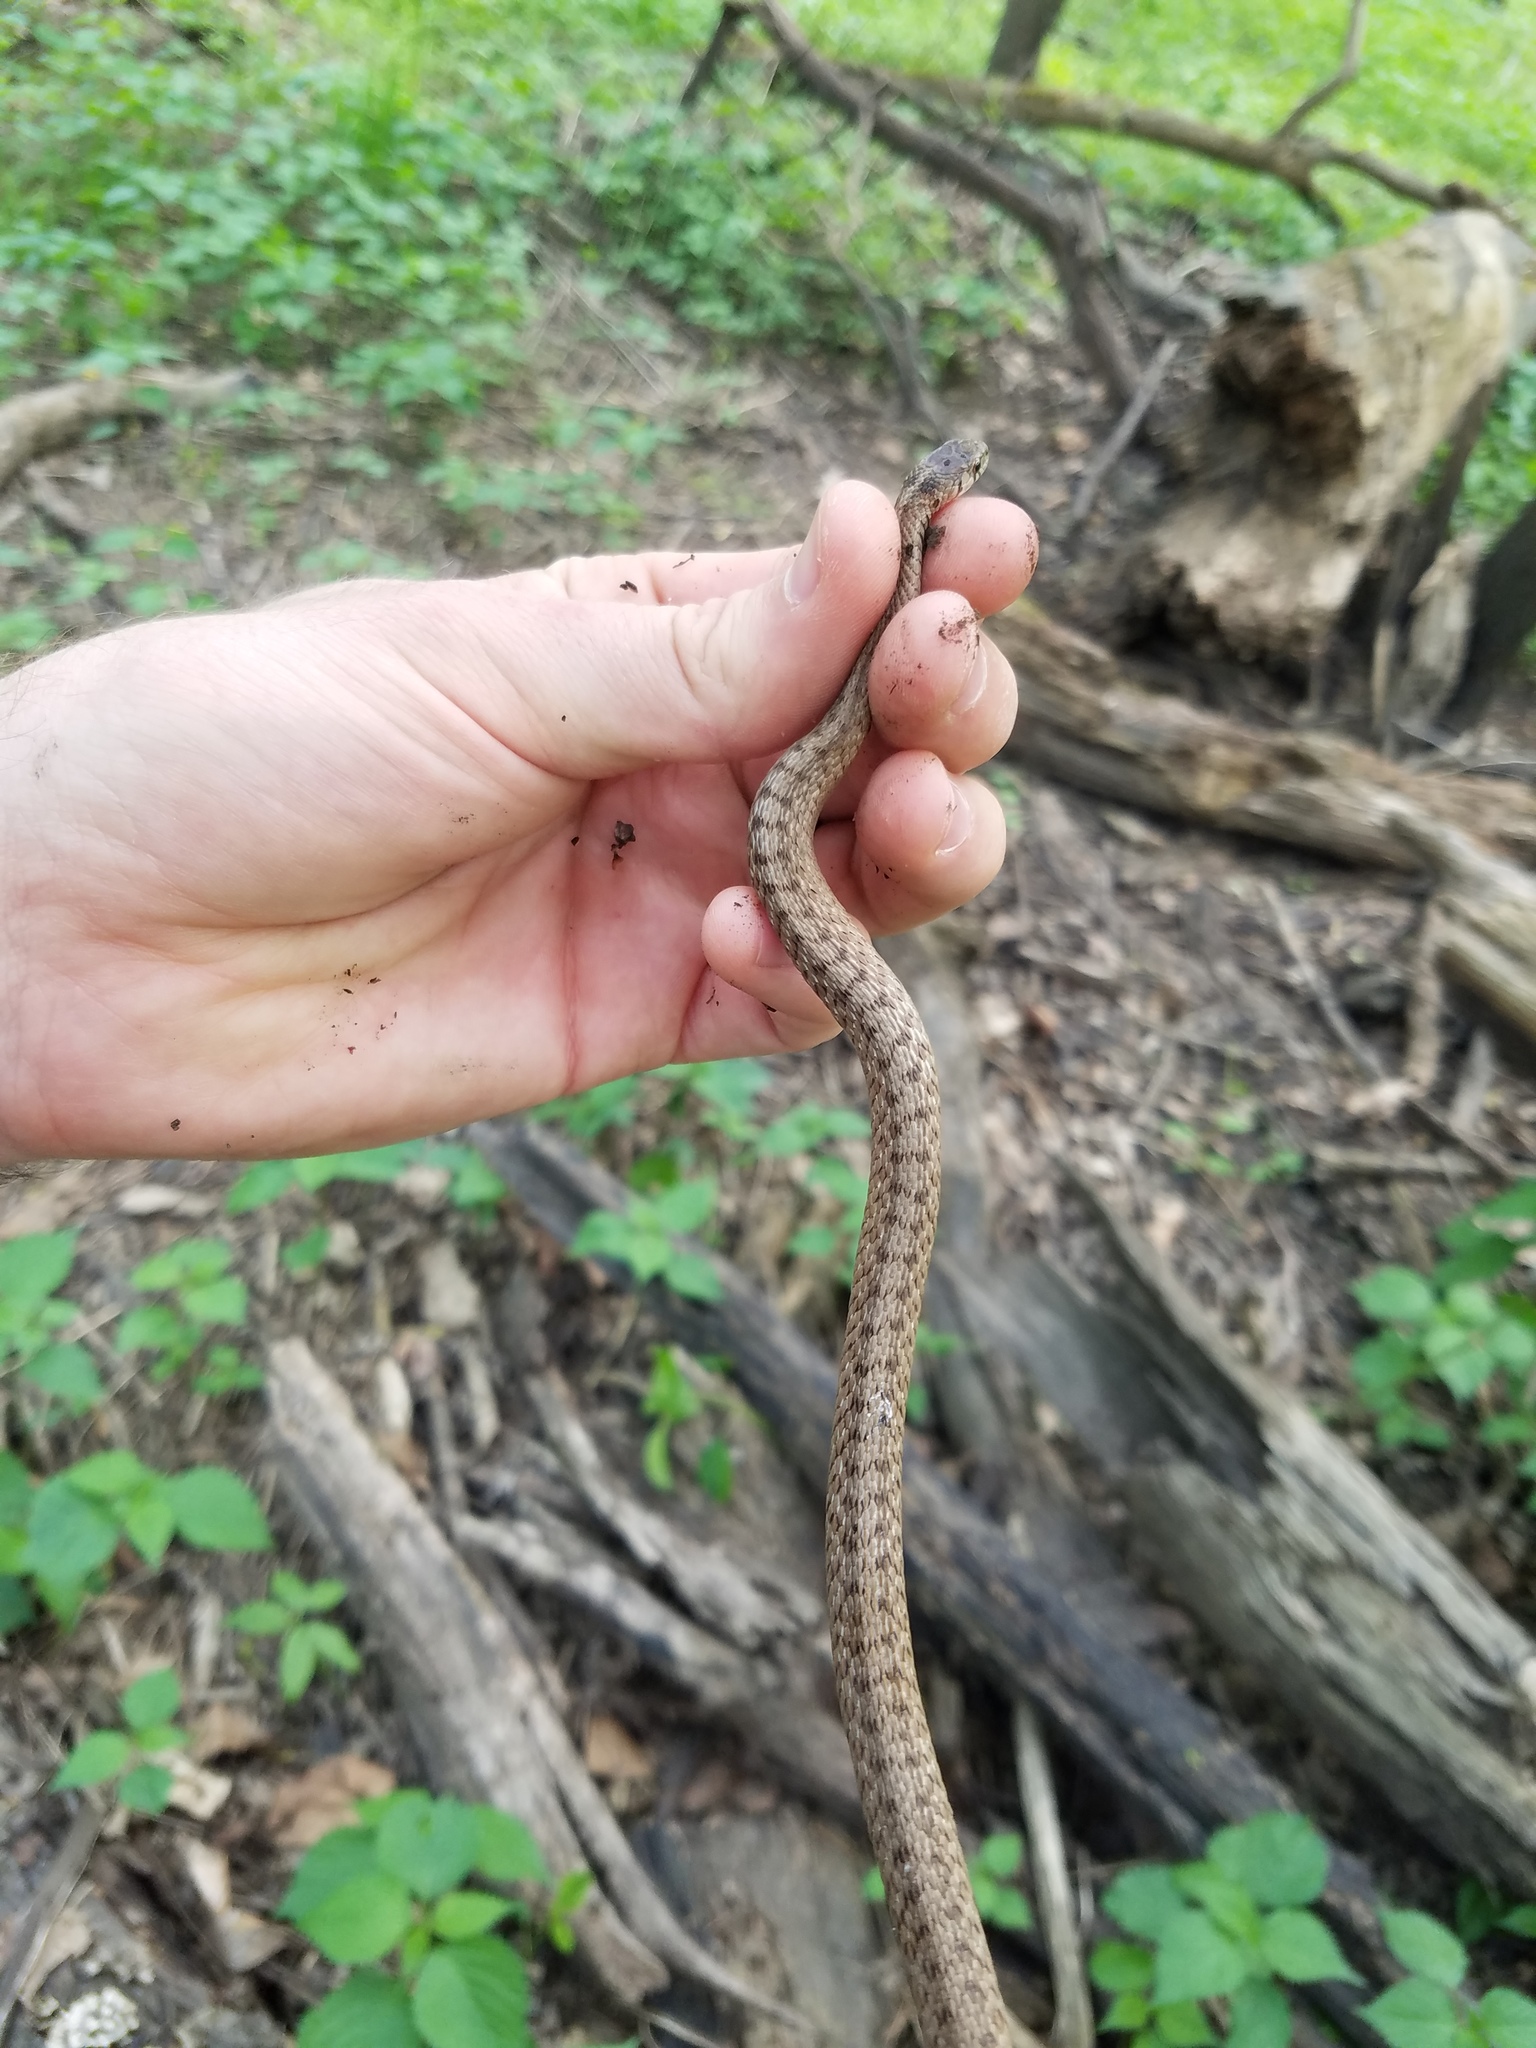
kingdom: Animalia
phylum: Chordata
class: Squamata
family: Colubridae
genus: Storeria
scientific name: Storeria dekayi
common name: (dekay’s) brown snake
